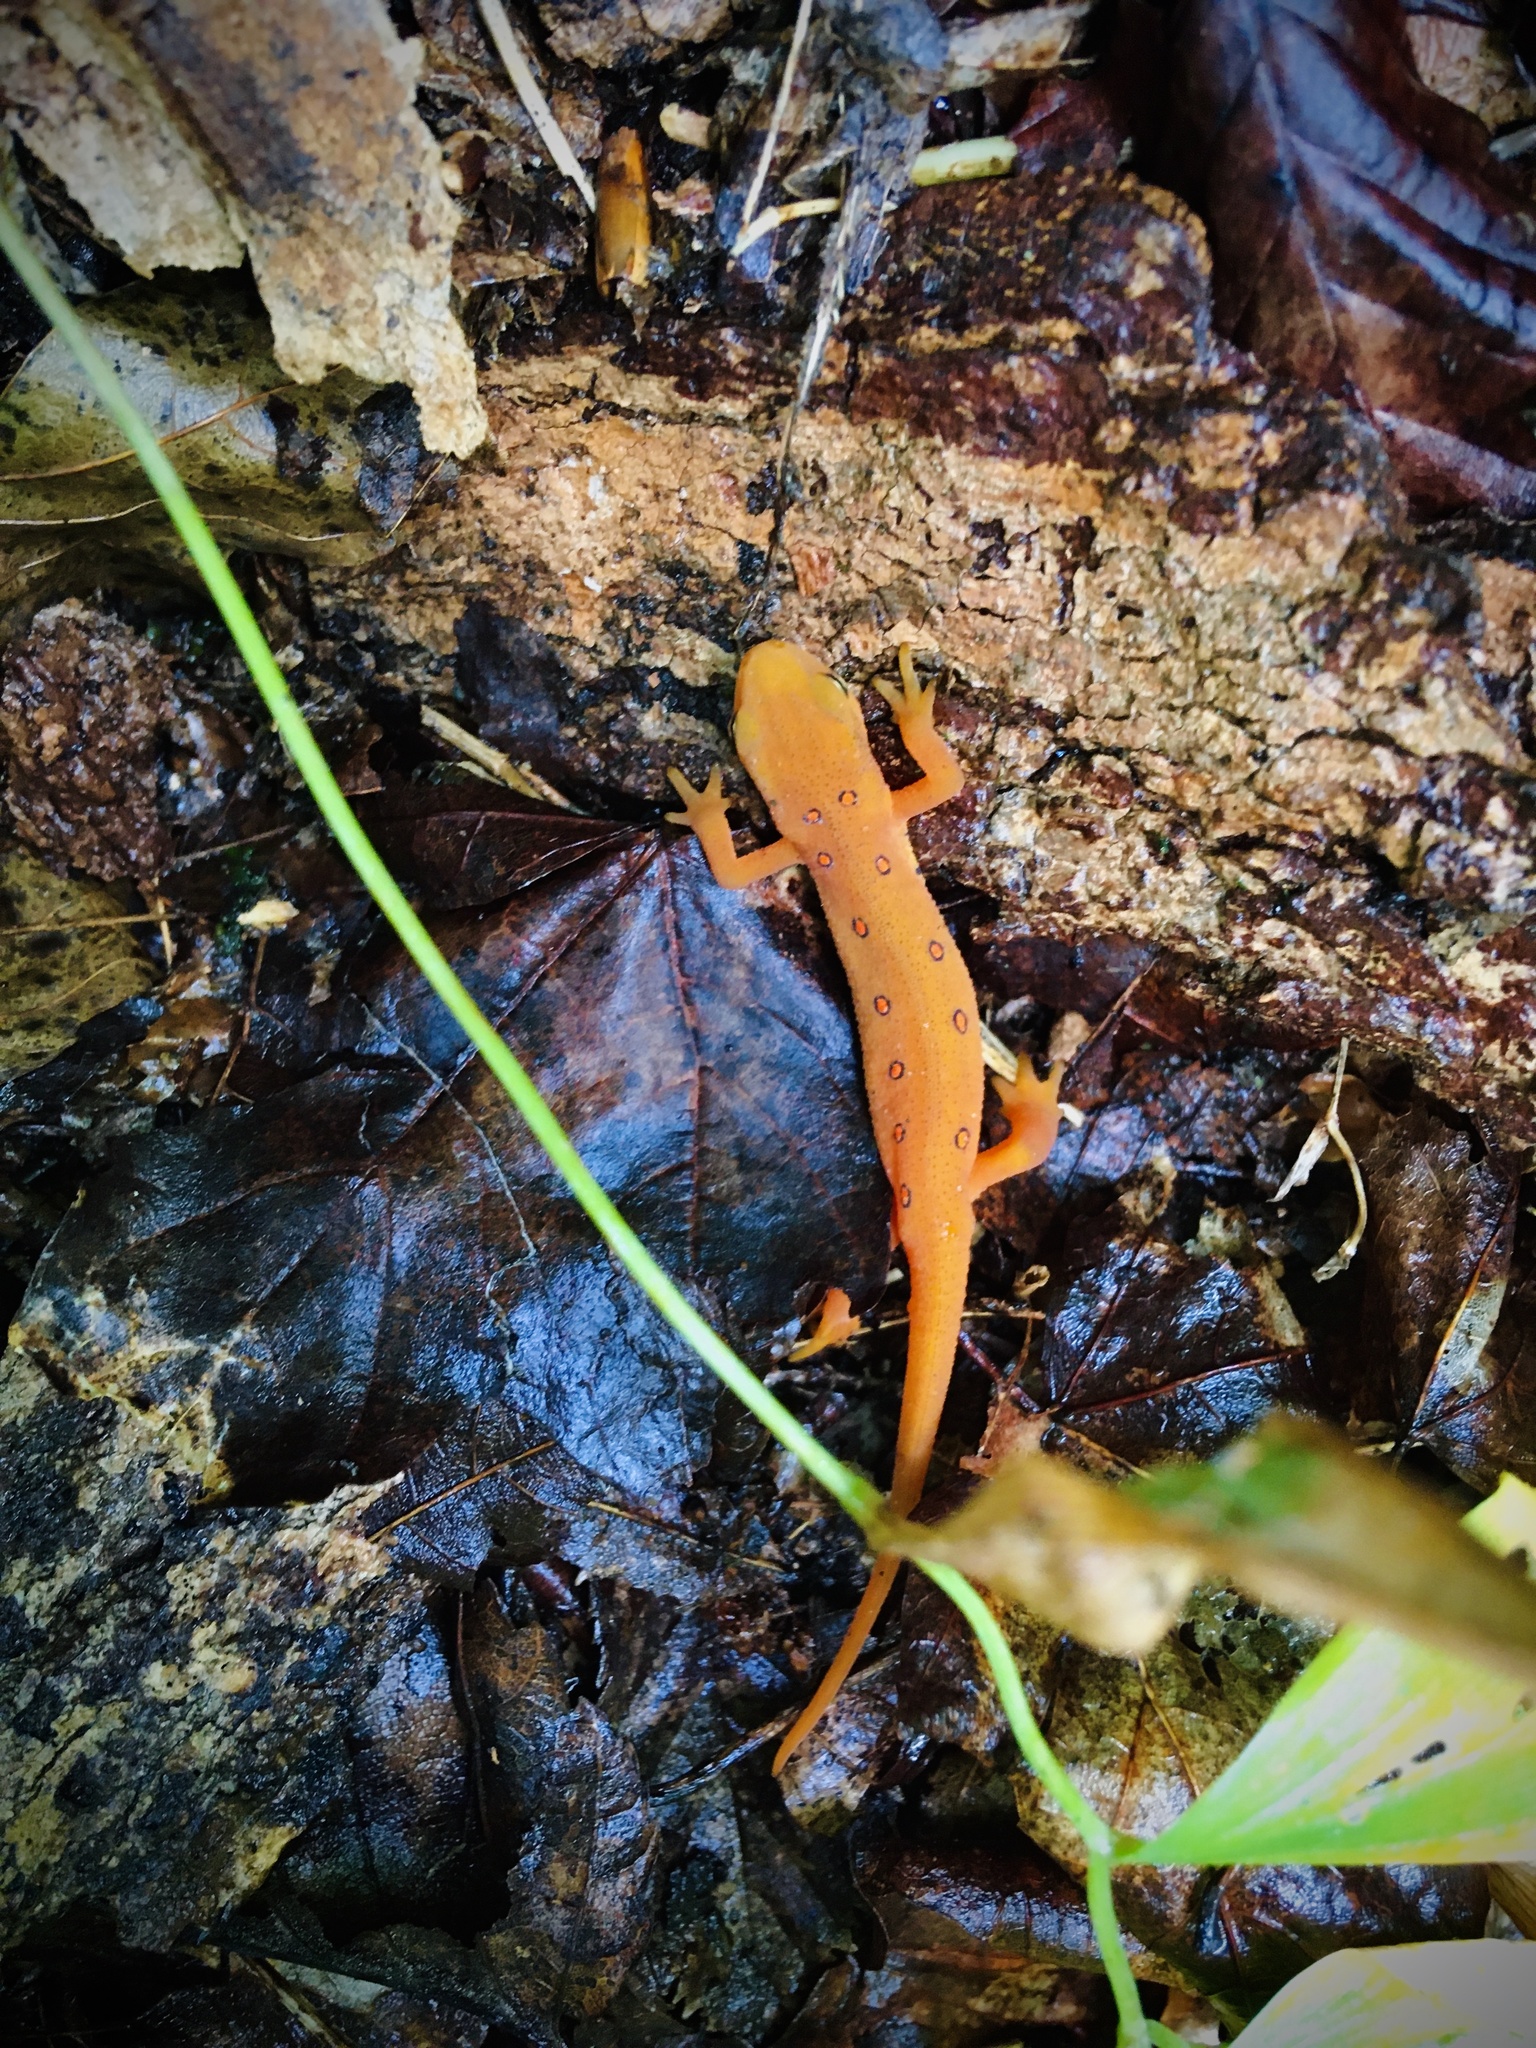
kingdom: Animalia
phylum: Chordata
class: Amphibia
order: Caudata
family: Salamandridae
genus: Notophthalmus
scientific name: Notophthalmus viridescens
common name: Eastern newt
